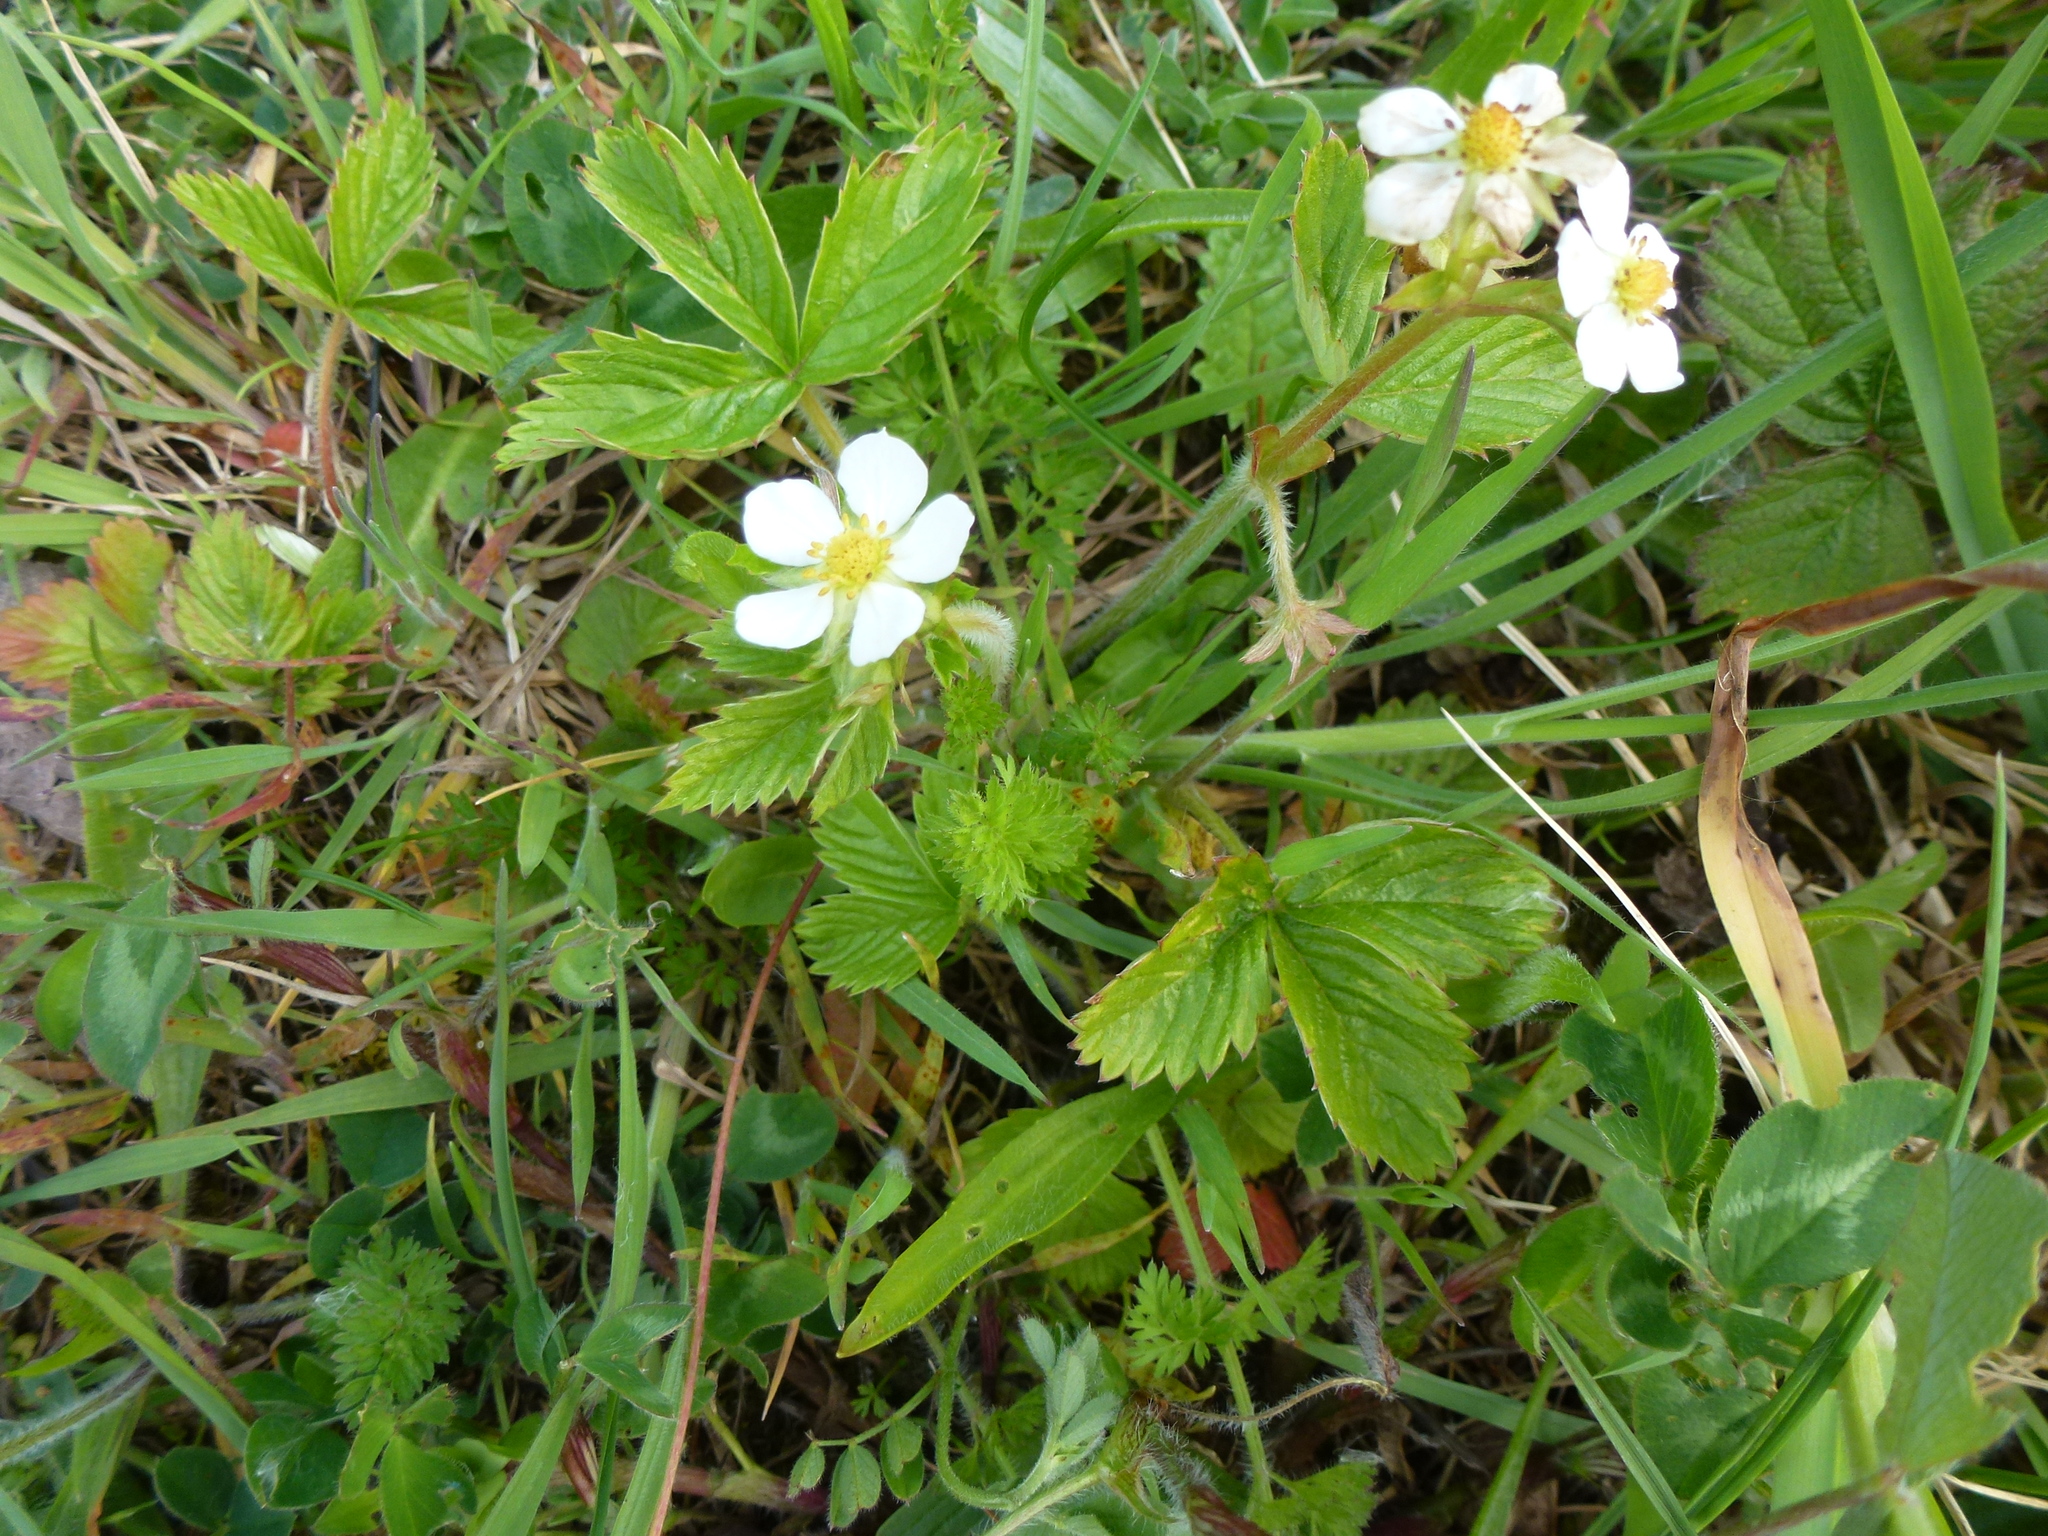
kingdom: Plantae
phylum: Tracheophyta
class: Magnoliopsida
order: Rosales
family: Rosaceae
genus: Fragaria
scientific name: Fragaria vesca
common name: Wild strawberry
